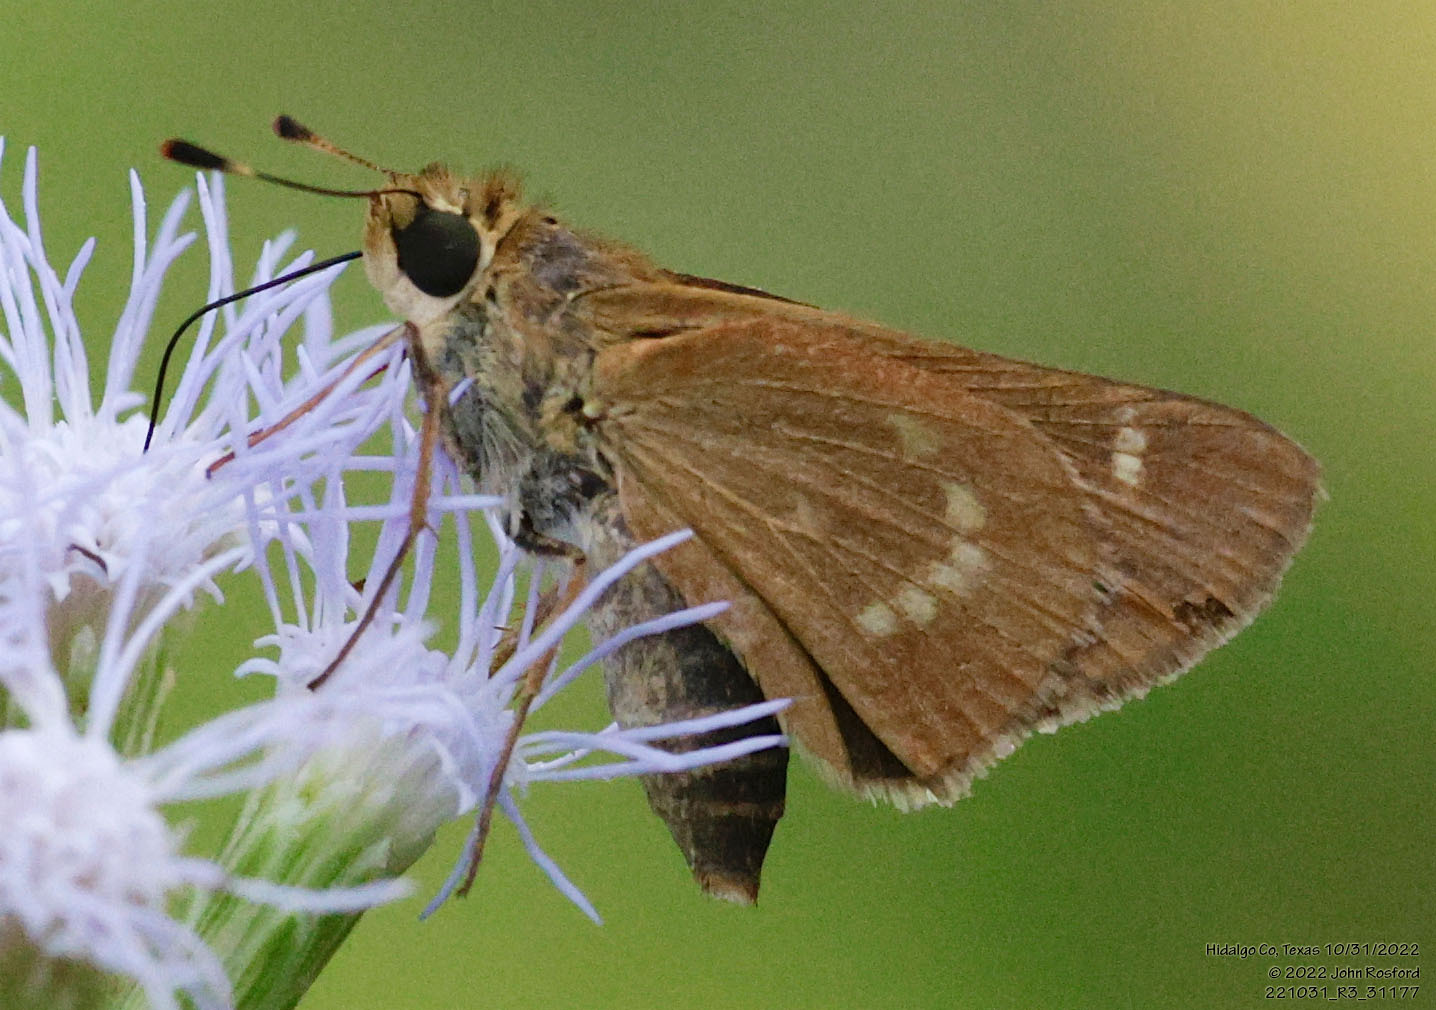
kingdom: Animalia
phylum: Arthropoda
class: Insecta
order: Lepidoptera
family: Hesperiidae
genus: Mellana
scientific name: Mellana eulogius
